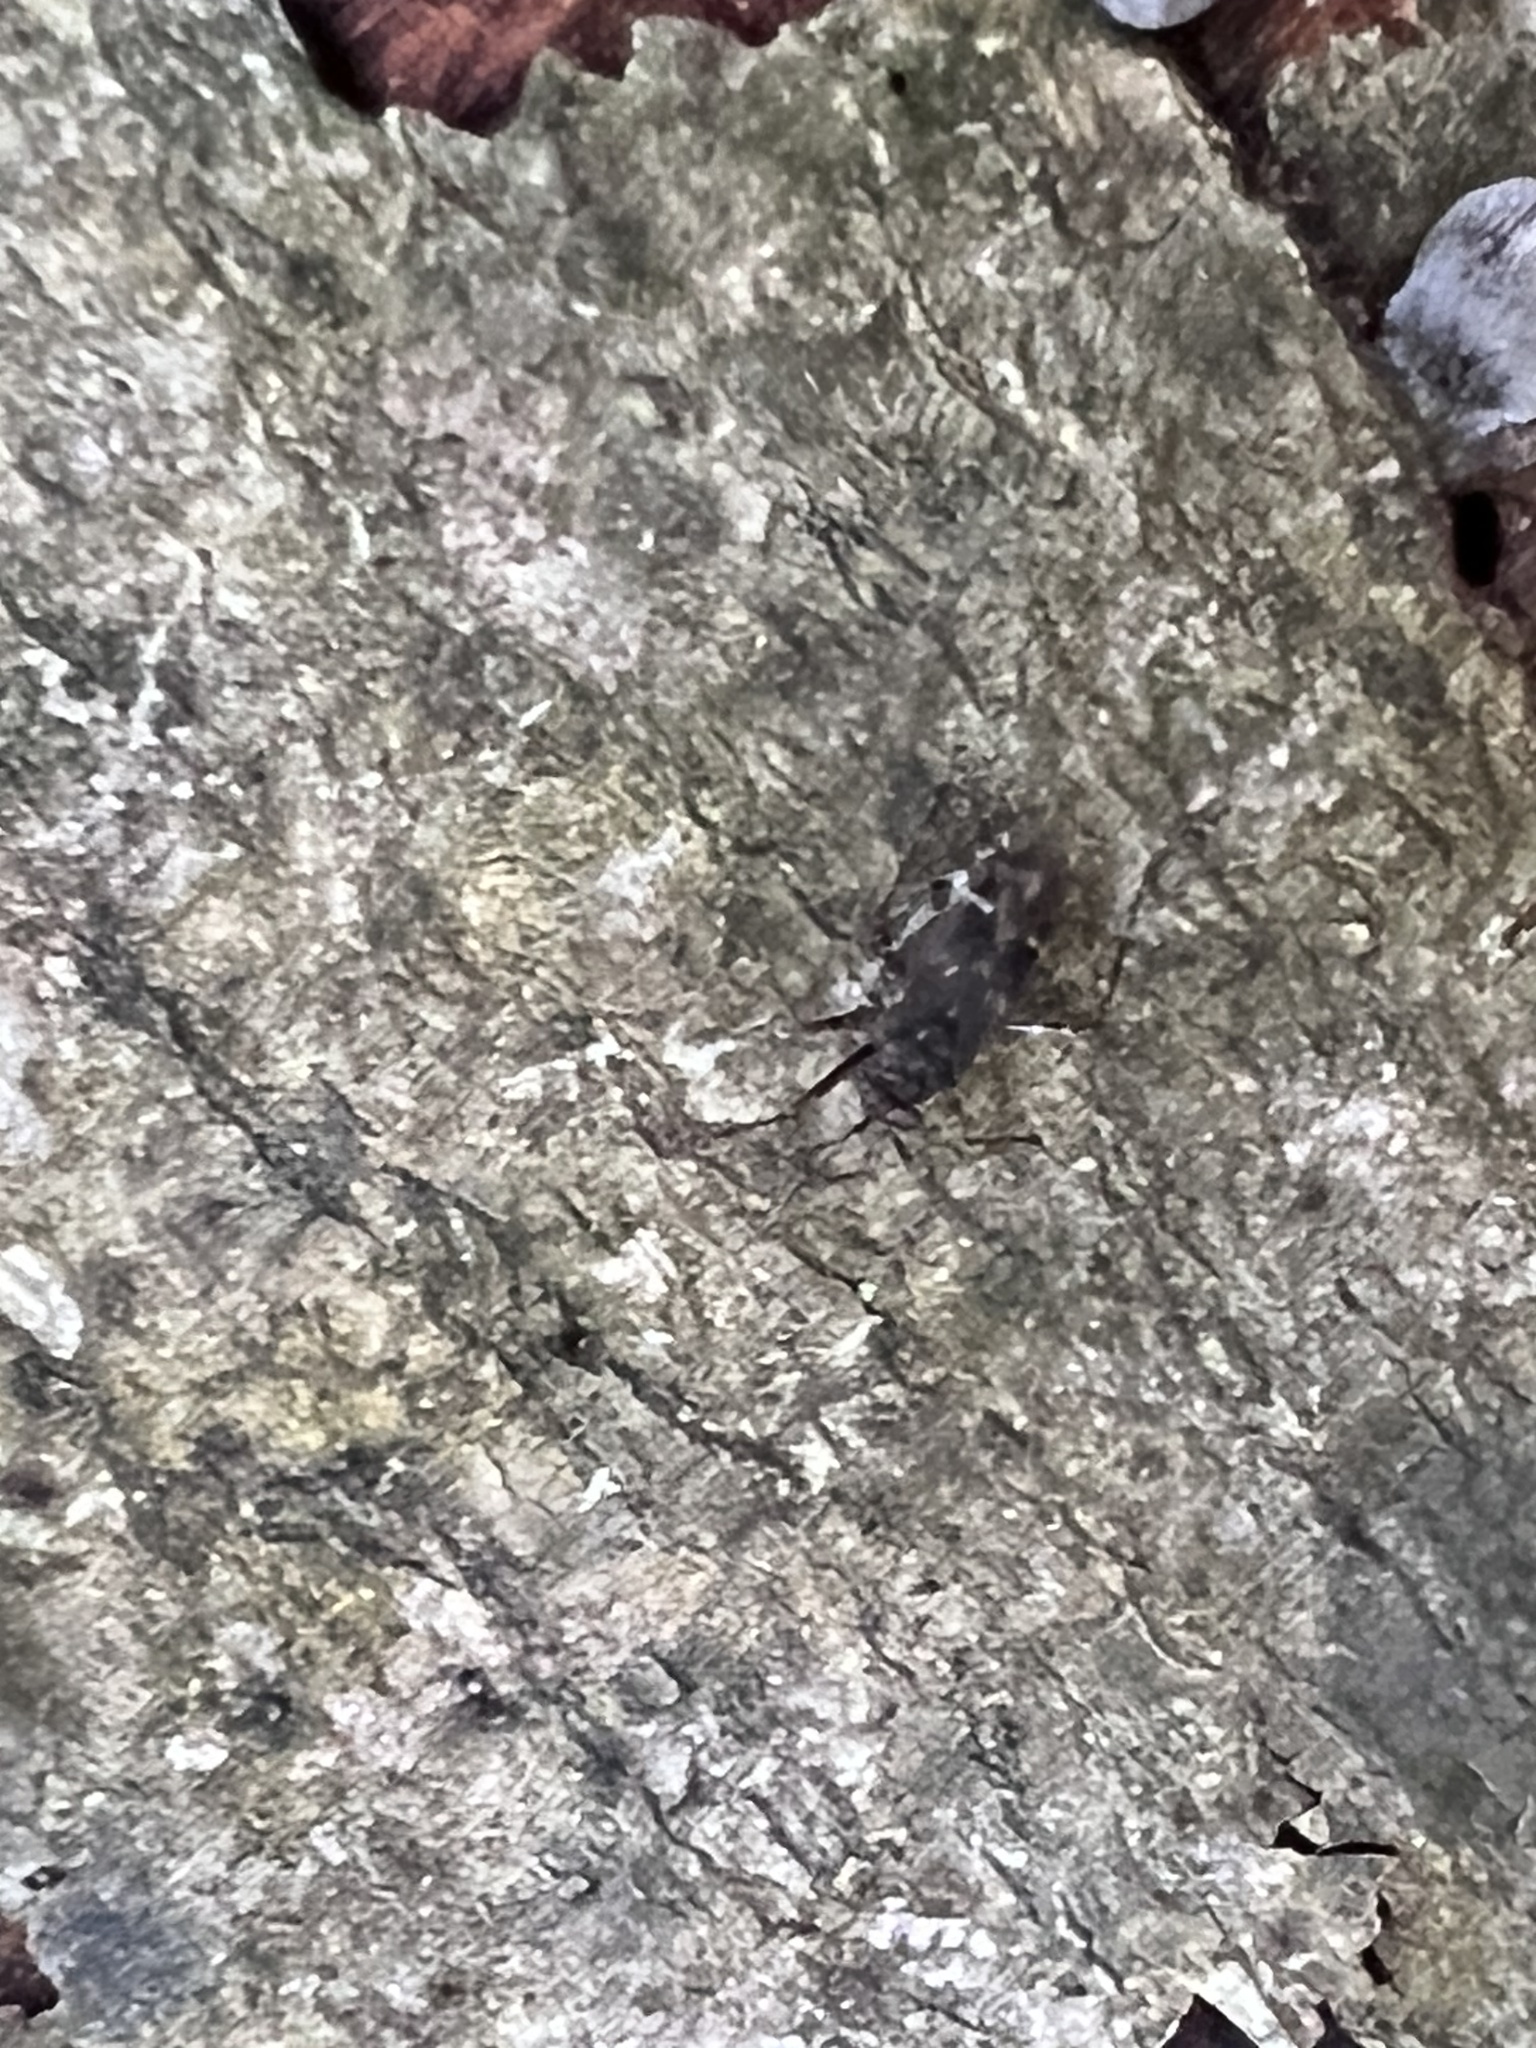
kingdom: Animalia
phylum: Arthropoda
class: Insecta
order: Hemiptera
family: Miridae
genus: Cylapus
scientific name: Cylapus tenuicornis
